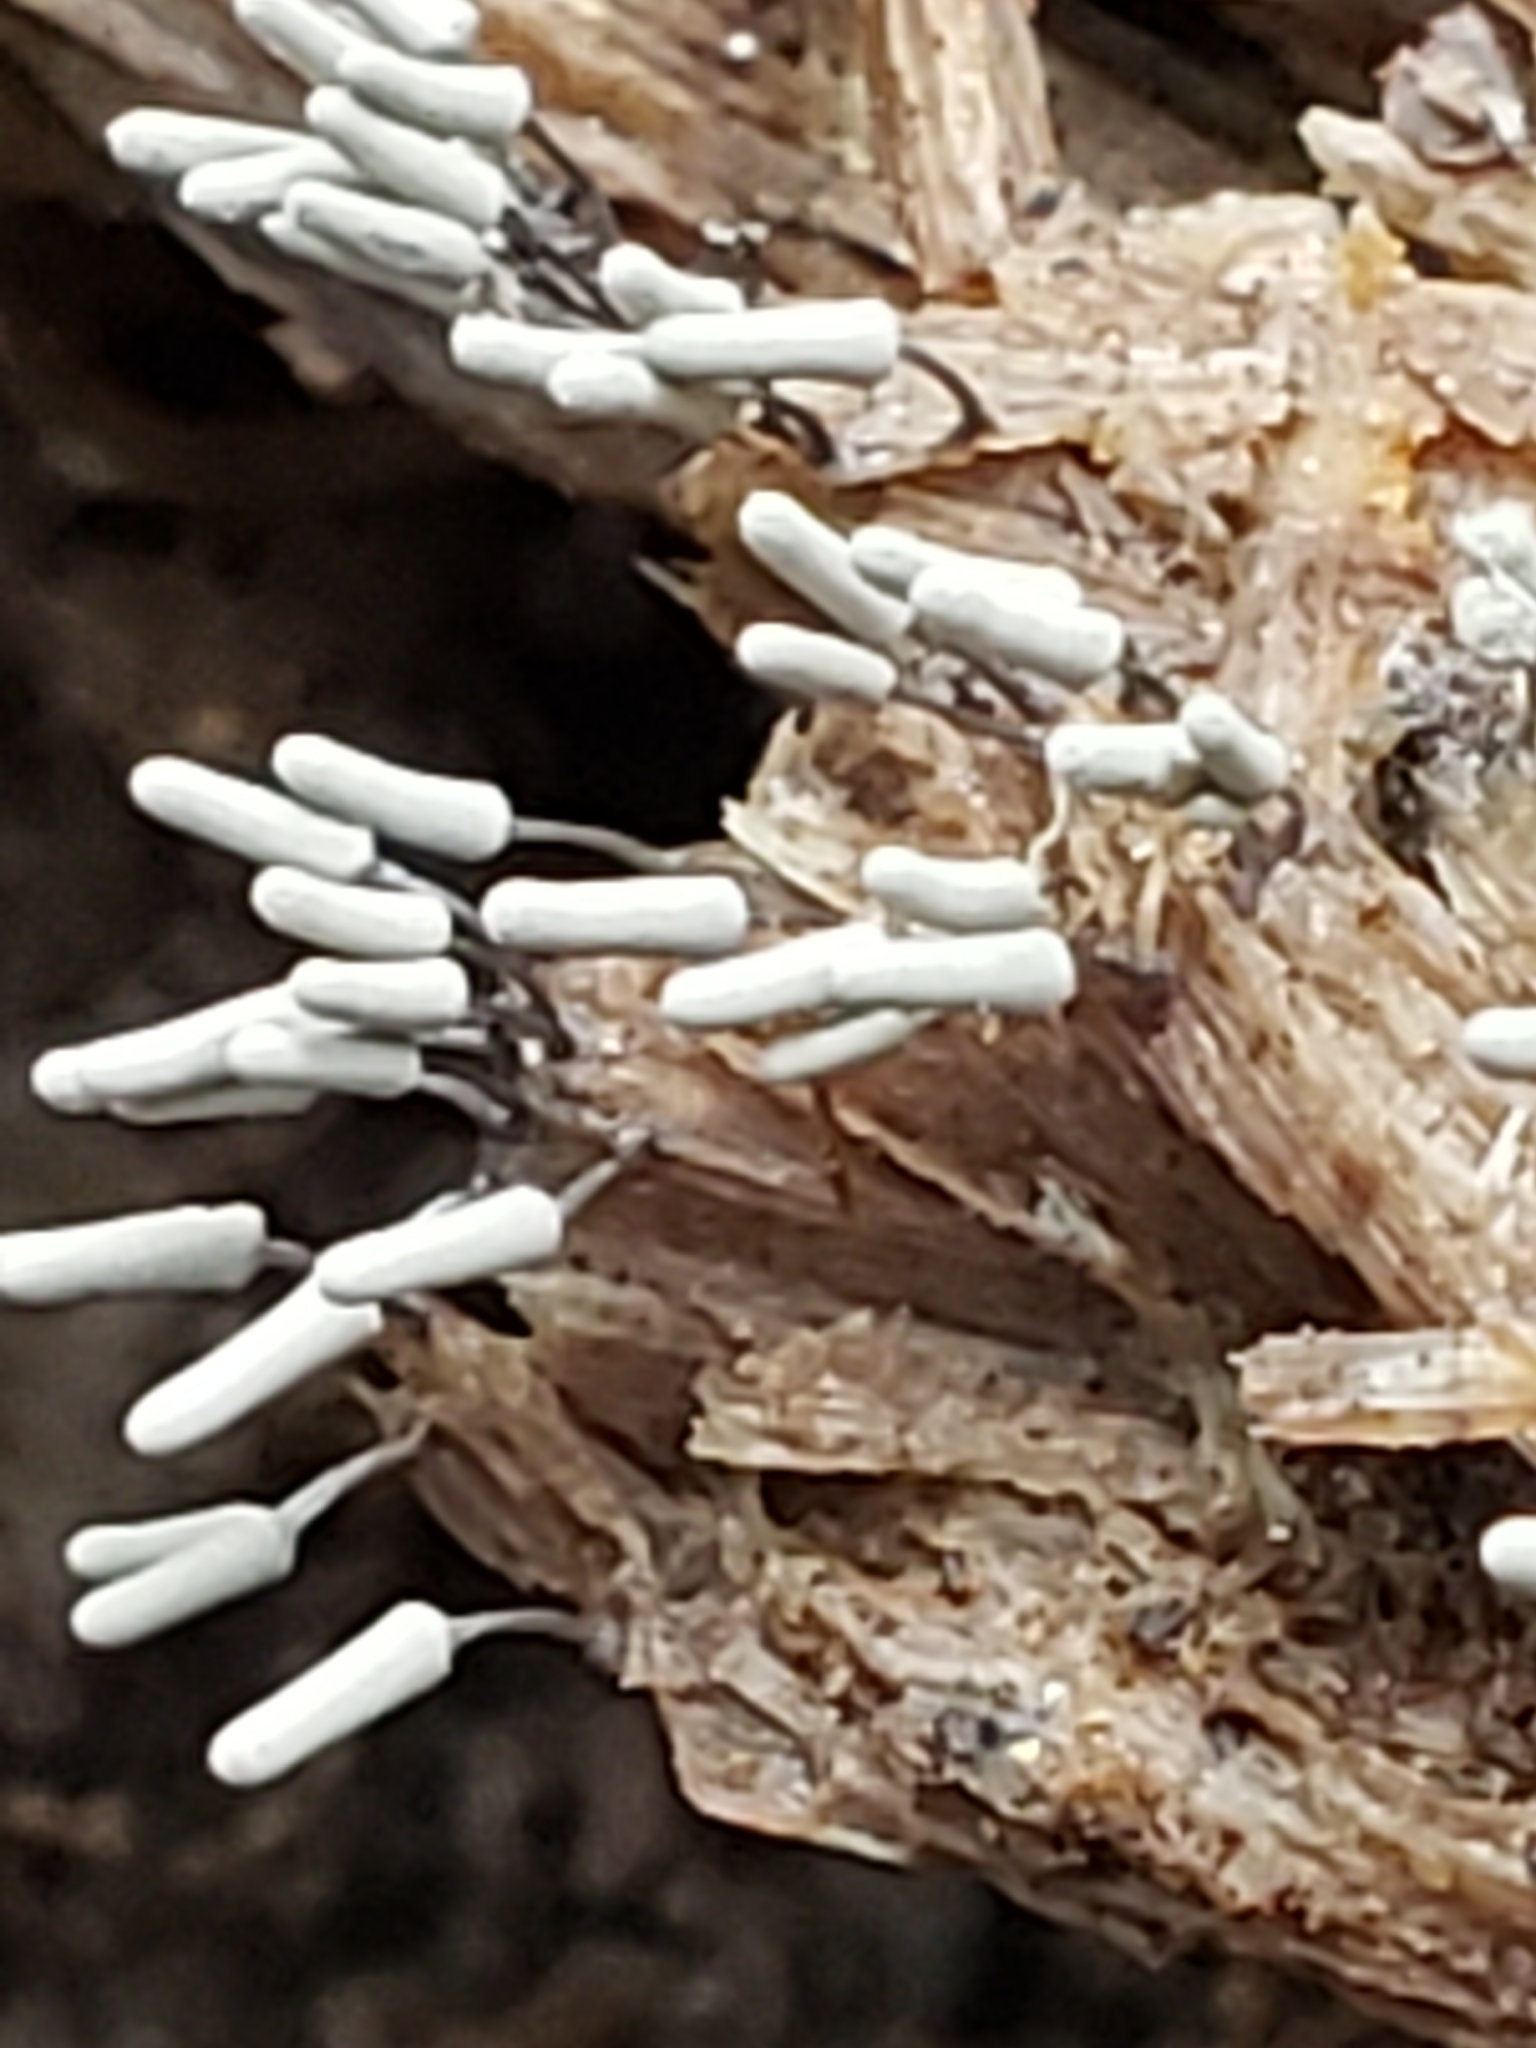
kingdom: Protozoa
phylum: Mycetozoa
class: Myxomycetes
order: Trichiales
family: Arcyriaceae
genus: Arcyria
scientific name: Arcyria cinerea
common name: White carnival candy slime mold
